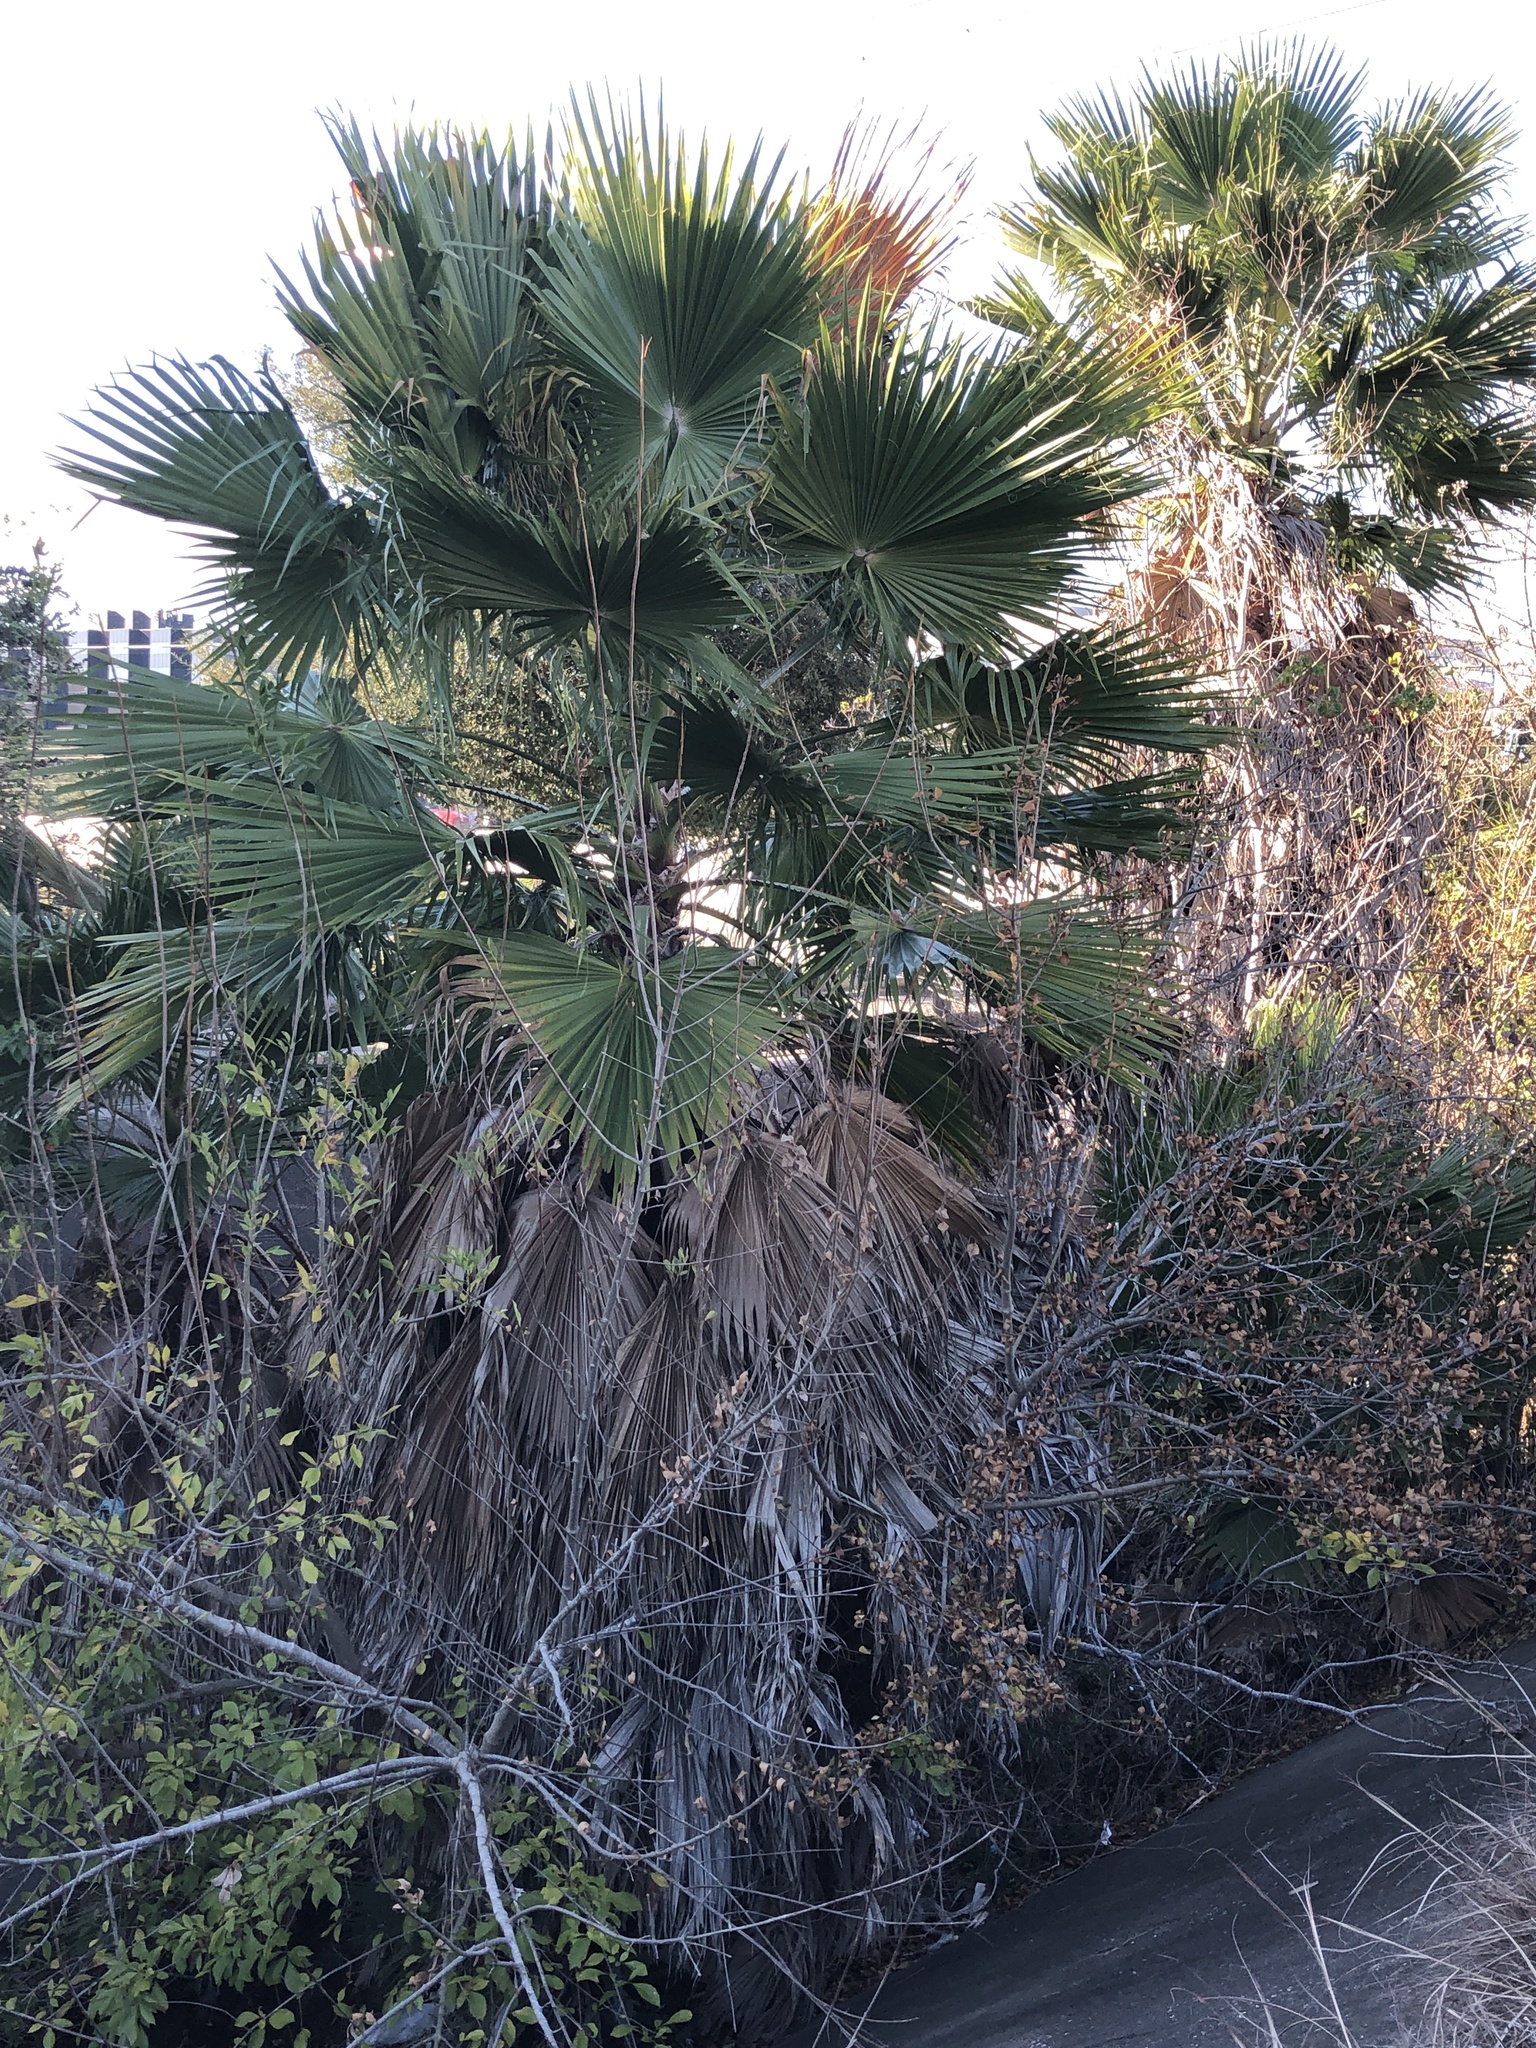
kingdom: Plantae
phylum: Tracheophyta
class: Liliopsida
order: Arecales
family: Arecaceae
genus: Washingtonia
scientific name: Washingtonia robusta
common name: Mexican fan palm
